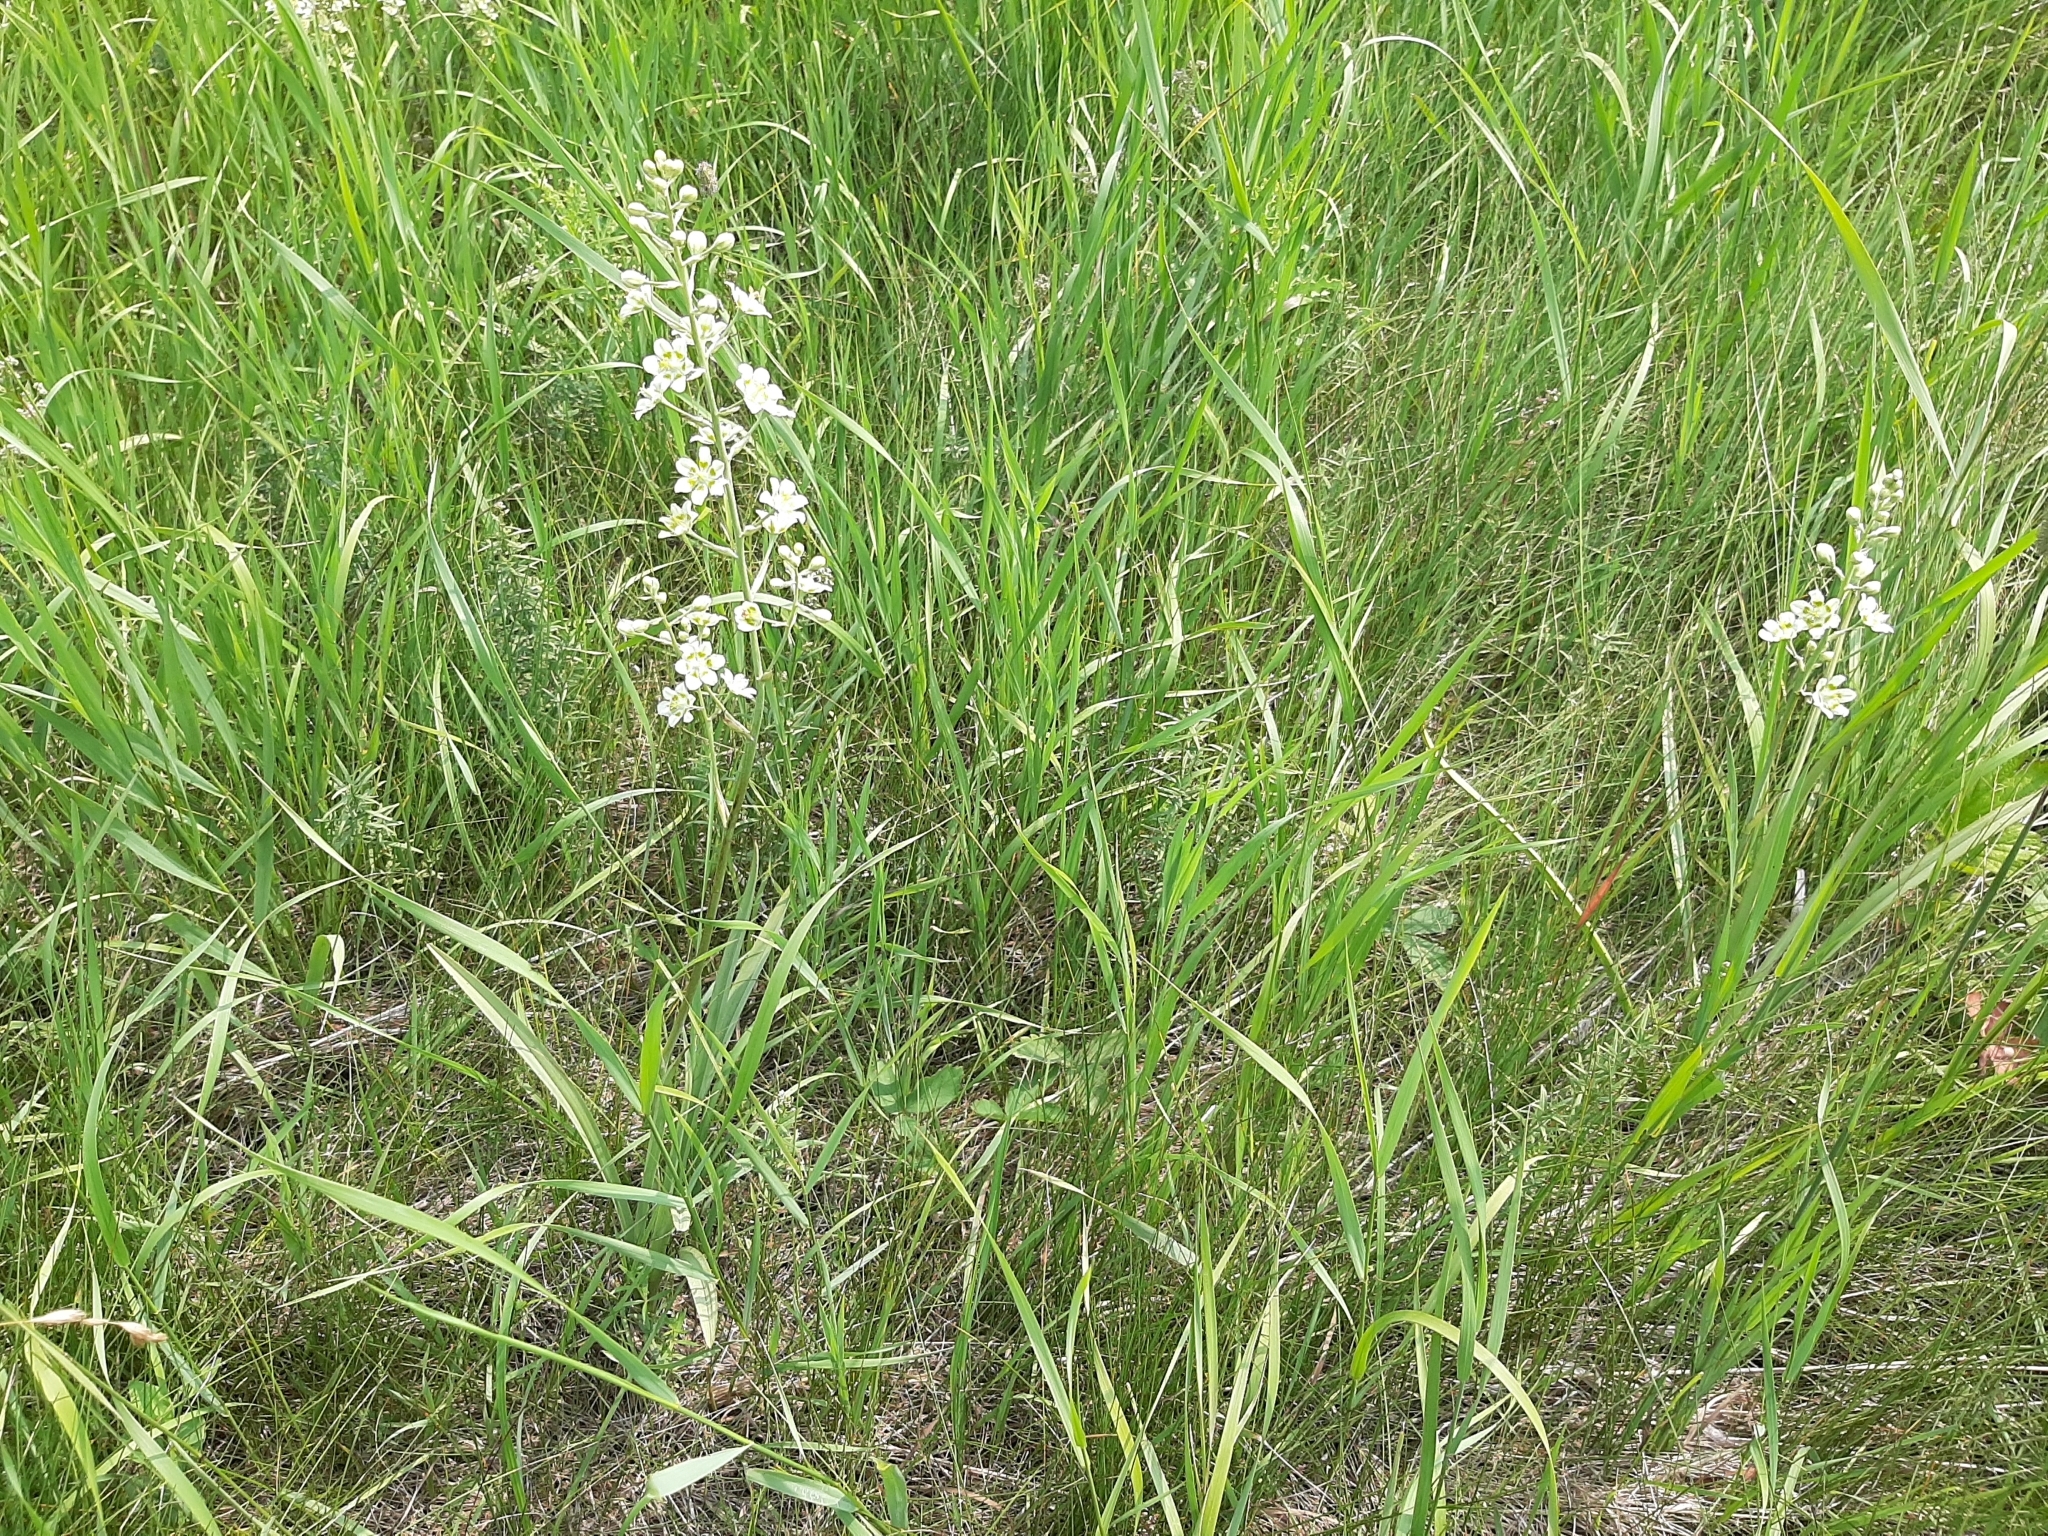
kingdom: Plantae
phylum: Tracheophyta
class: Liliopsida
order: Liliales
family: Melanthiaceae
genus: Anticlea
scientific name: Anticlea elegans
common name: Mountain death camas
